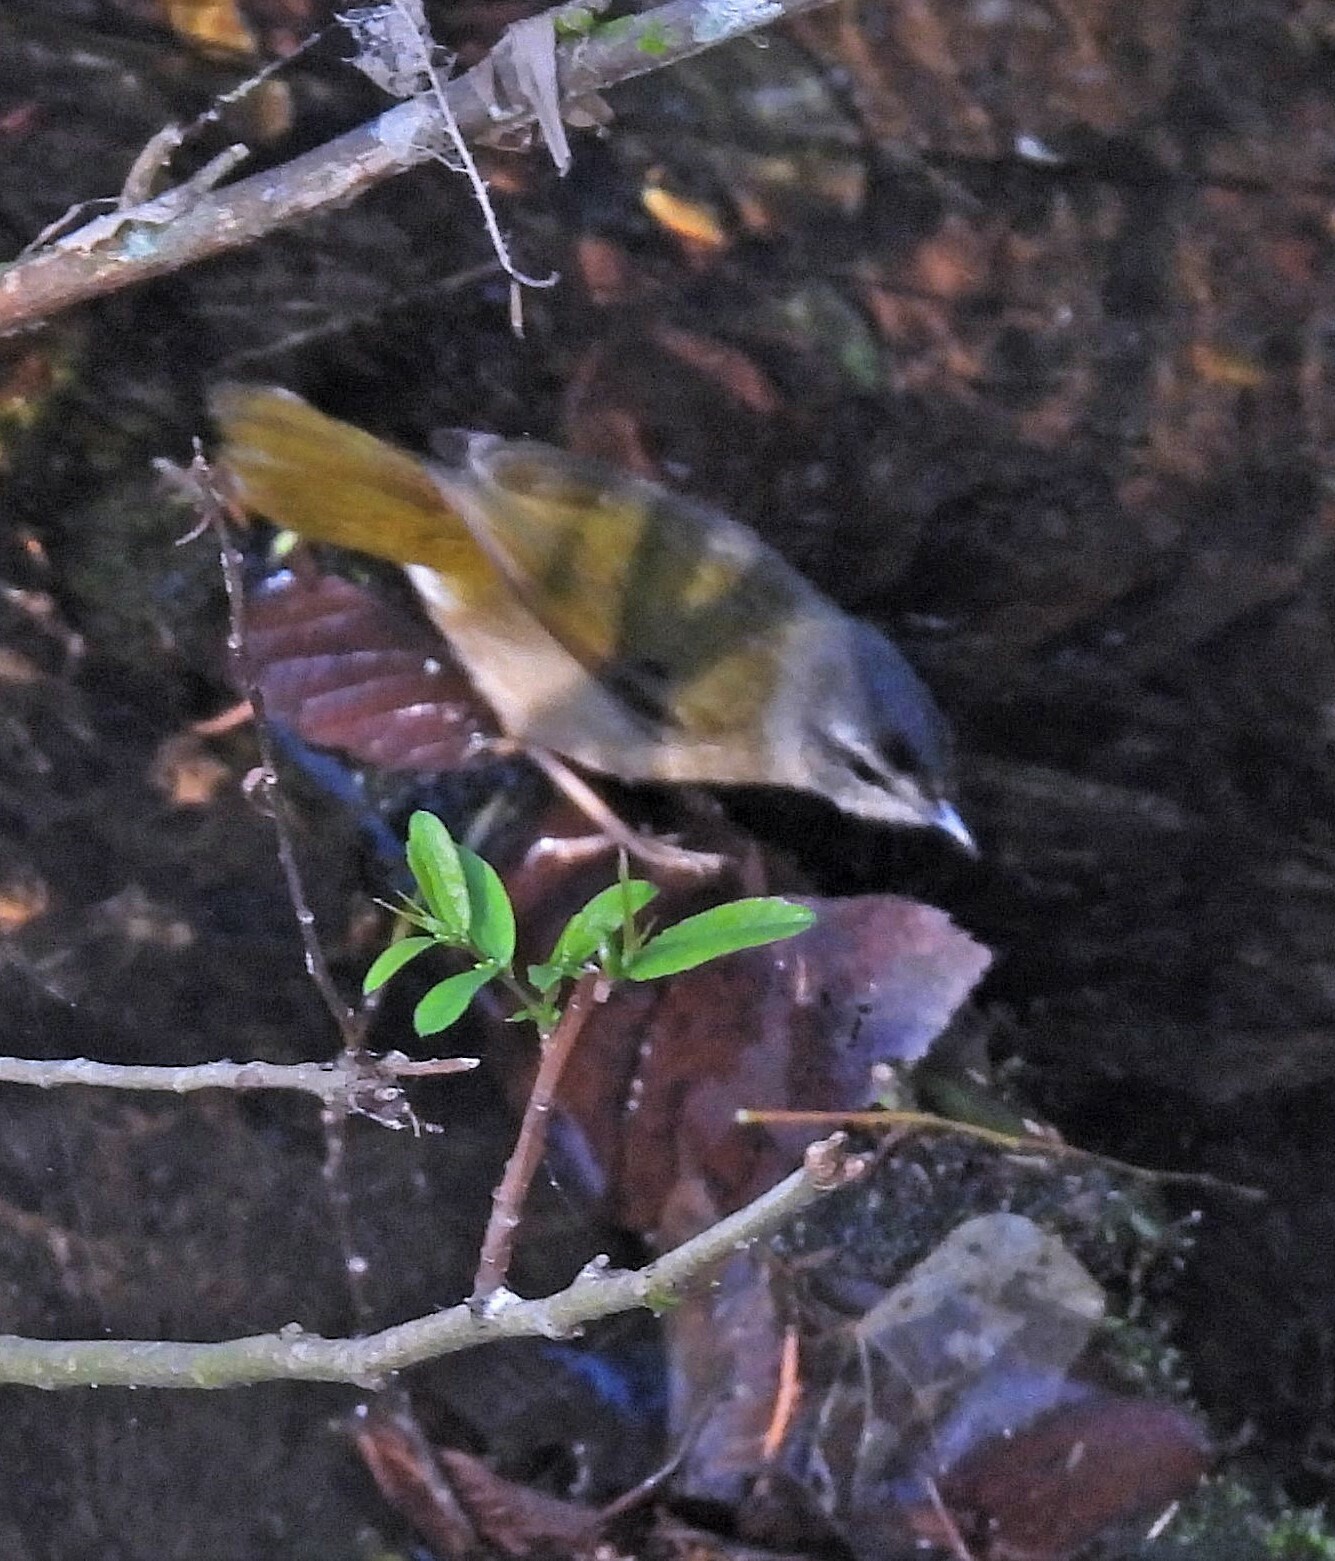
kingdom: Animalia
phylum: Chordata
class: Aves
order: Passeriformes
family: Parulidae
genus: Myiothlypis
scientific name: Myiothlypis rivularis
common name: Riverbank warbler
